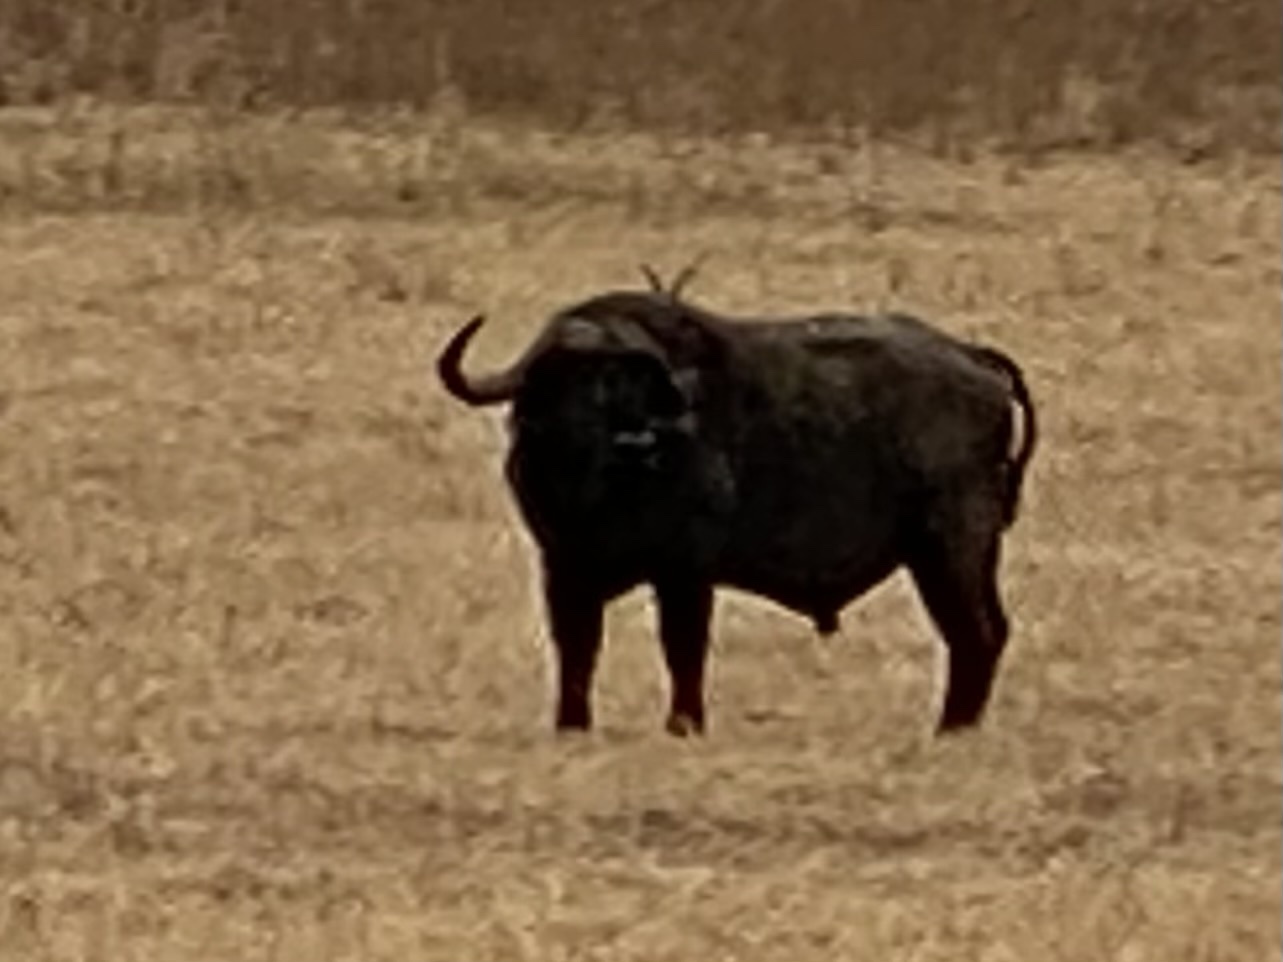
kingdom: Animalia
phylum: Chordata
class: Mammalia
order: Artiodactyla
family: Bovidae
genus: Syncerus
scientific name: Syncerus caffer
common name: African buffalo
